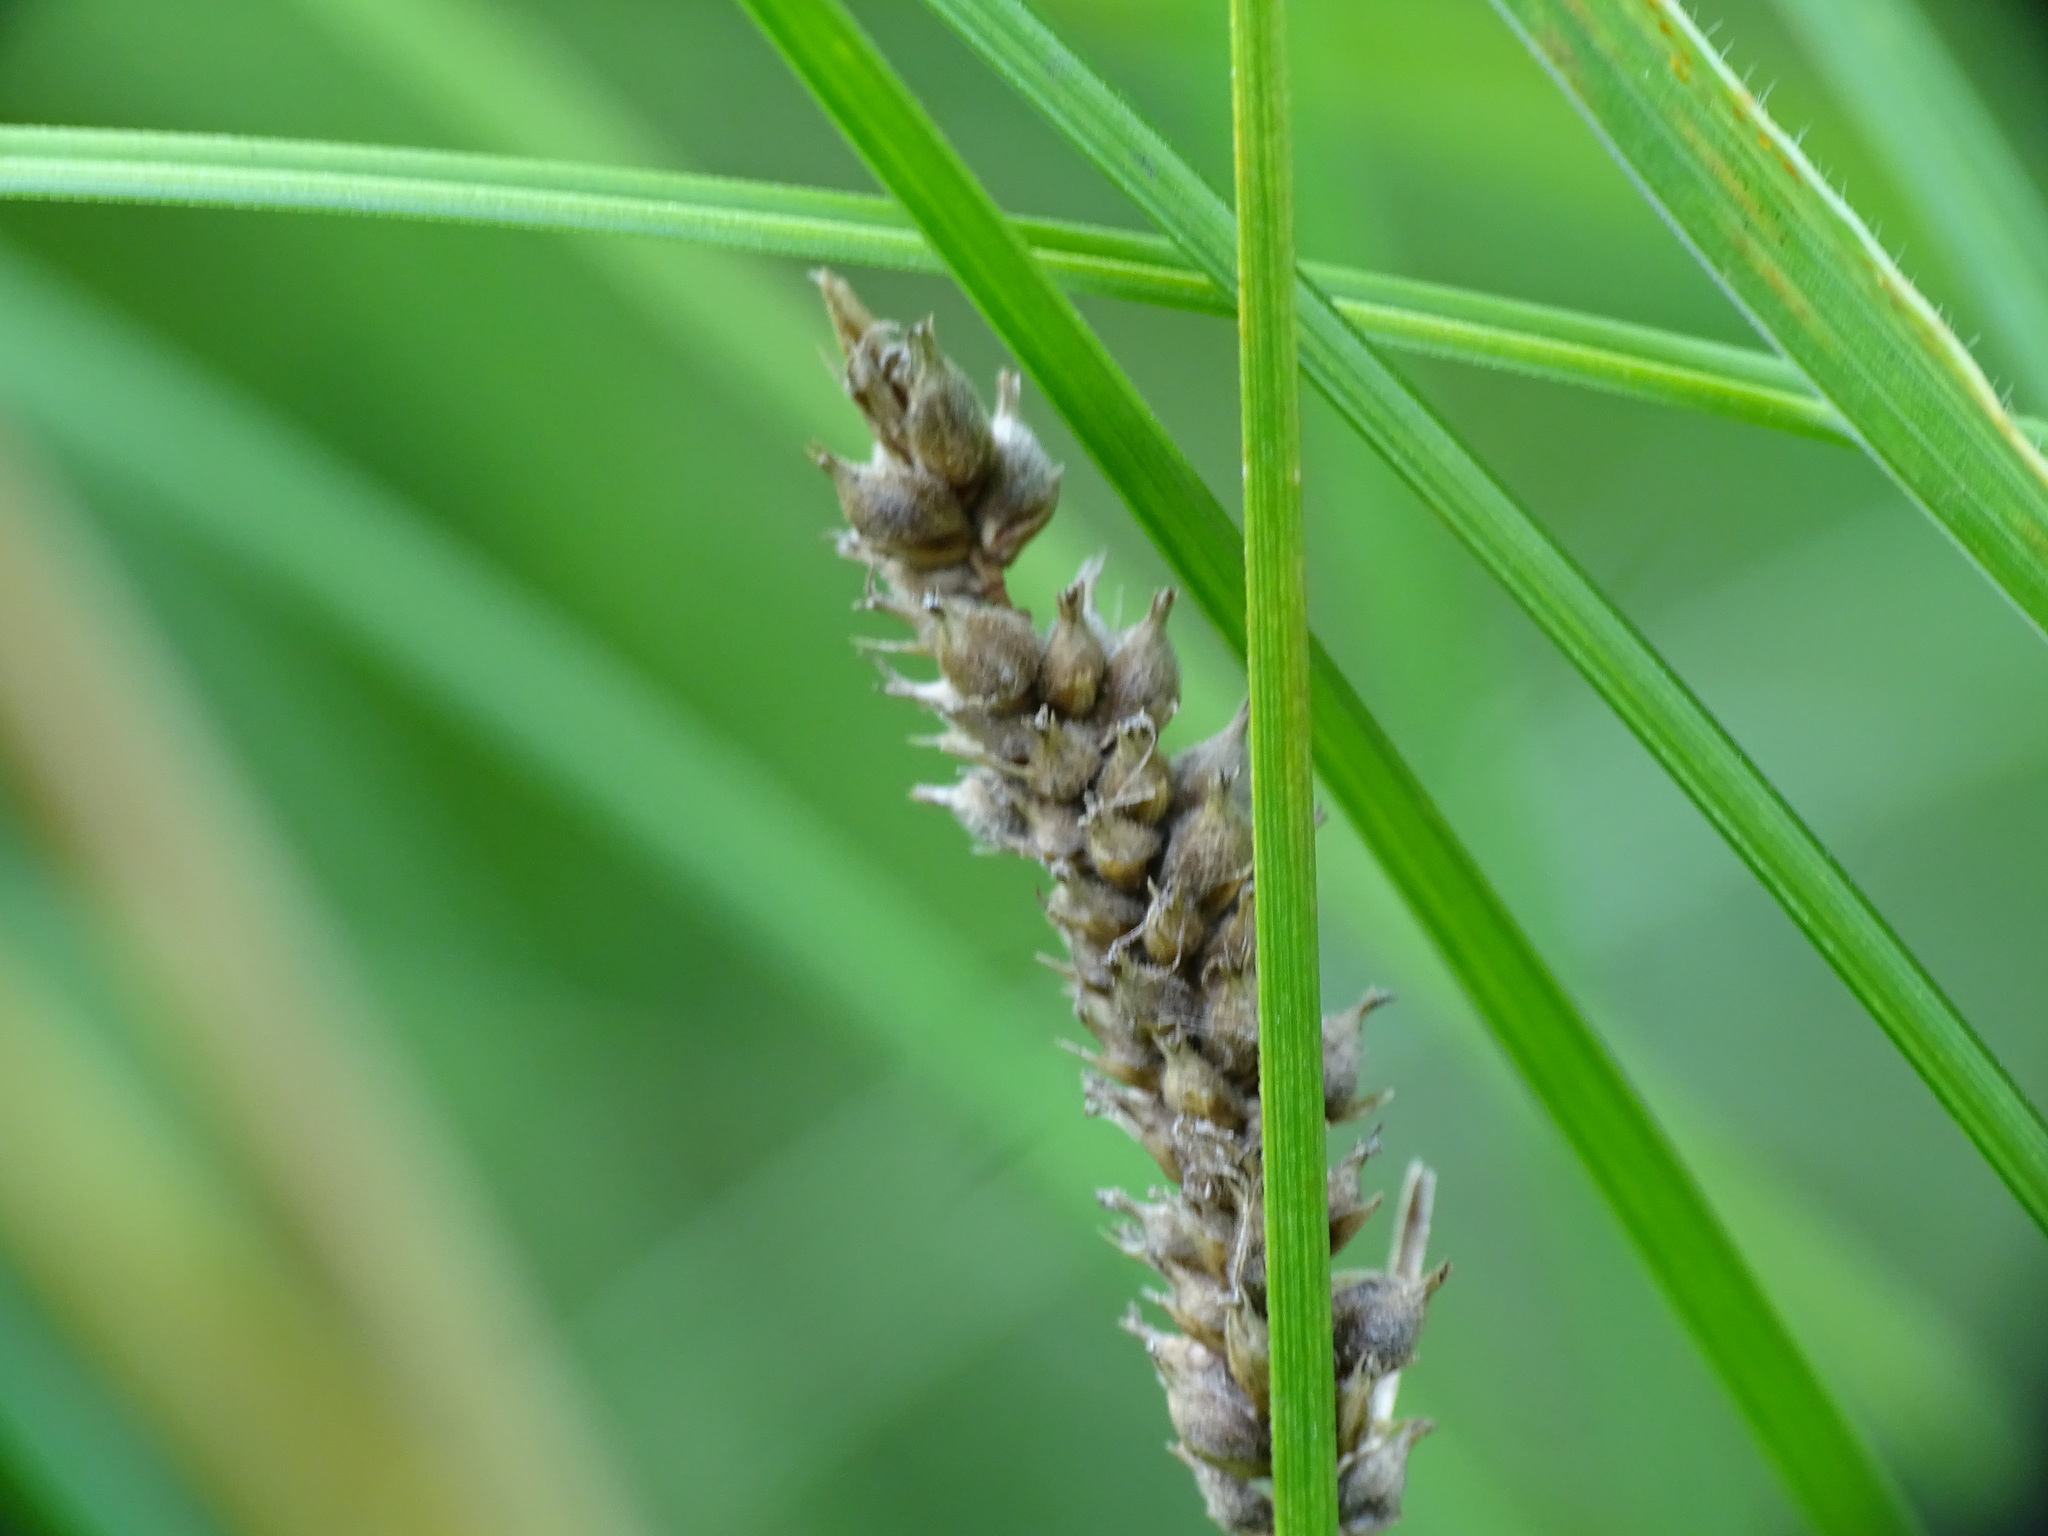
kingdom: Plantae
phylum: Tracheophyta
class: Liliopsida
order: Poales
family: Cyperaceae
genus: Carex
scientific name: Carex pellita
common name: Woolly sedge
